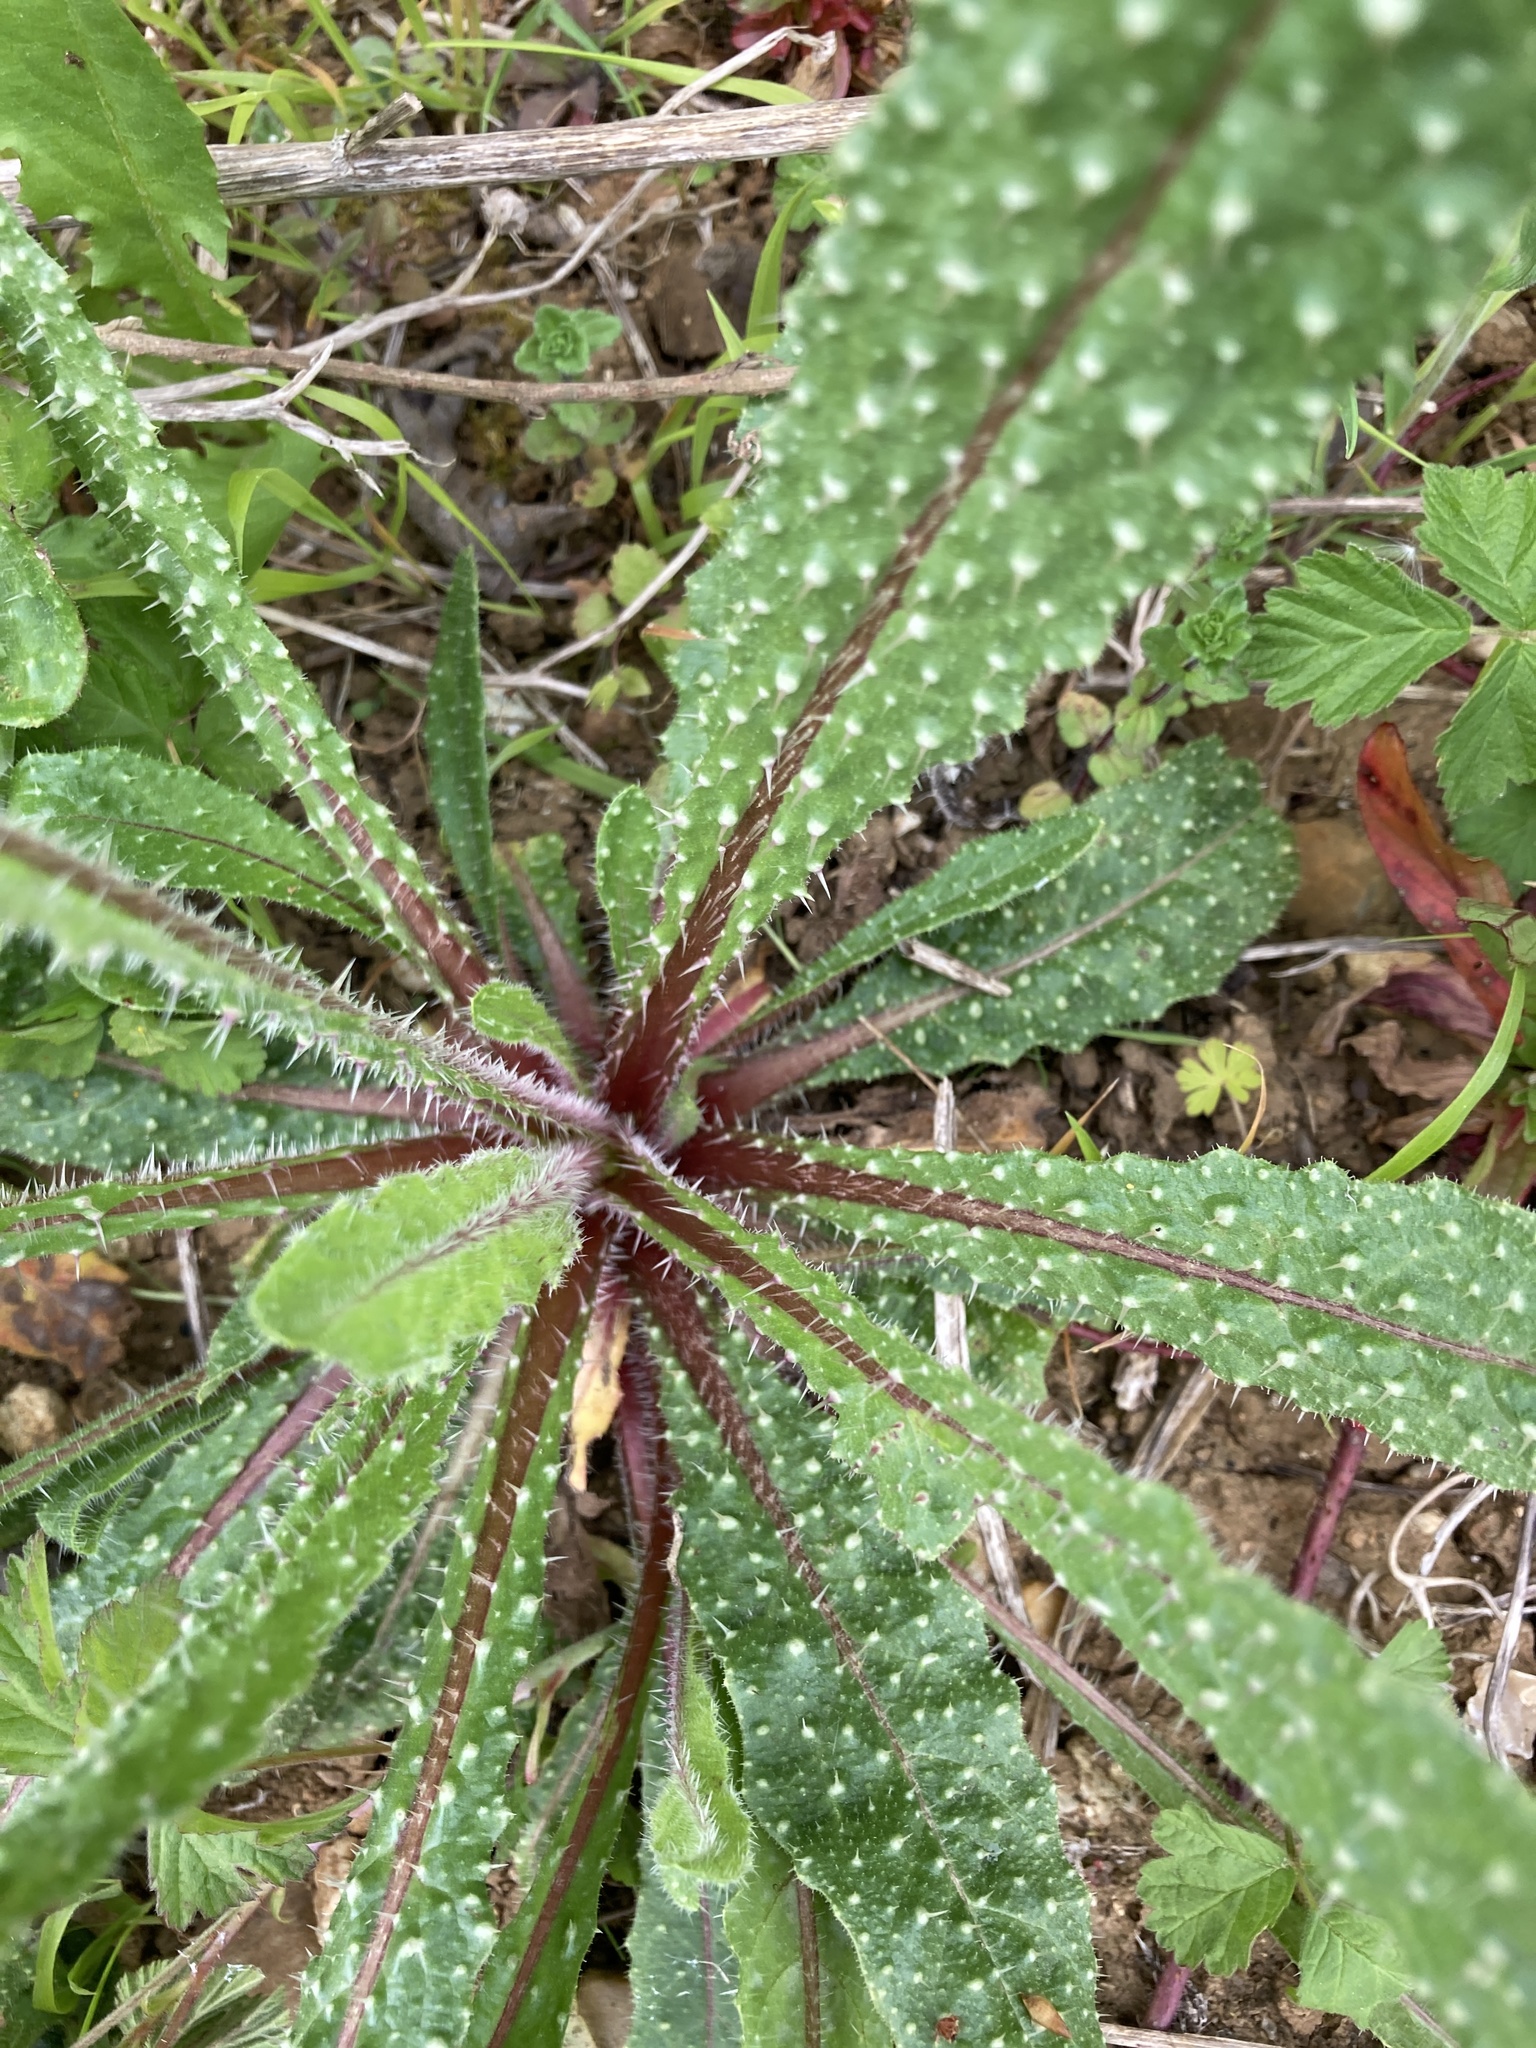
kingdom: Plantae
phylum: Tracheophyta
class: Magnoliopsida
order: Asterales
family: Asteraceae
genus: Helminthotheca
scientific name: Helminthotheca echioides
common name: Ox-tongue
